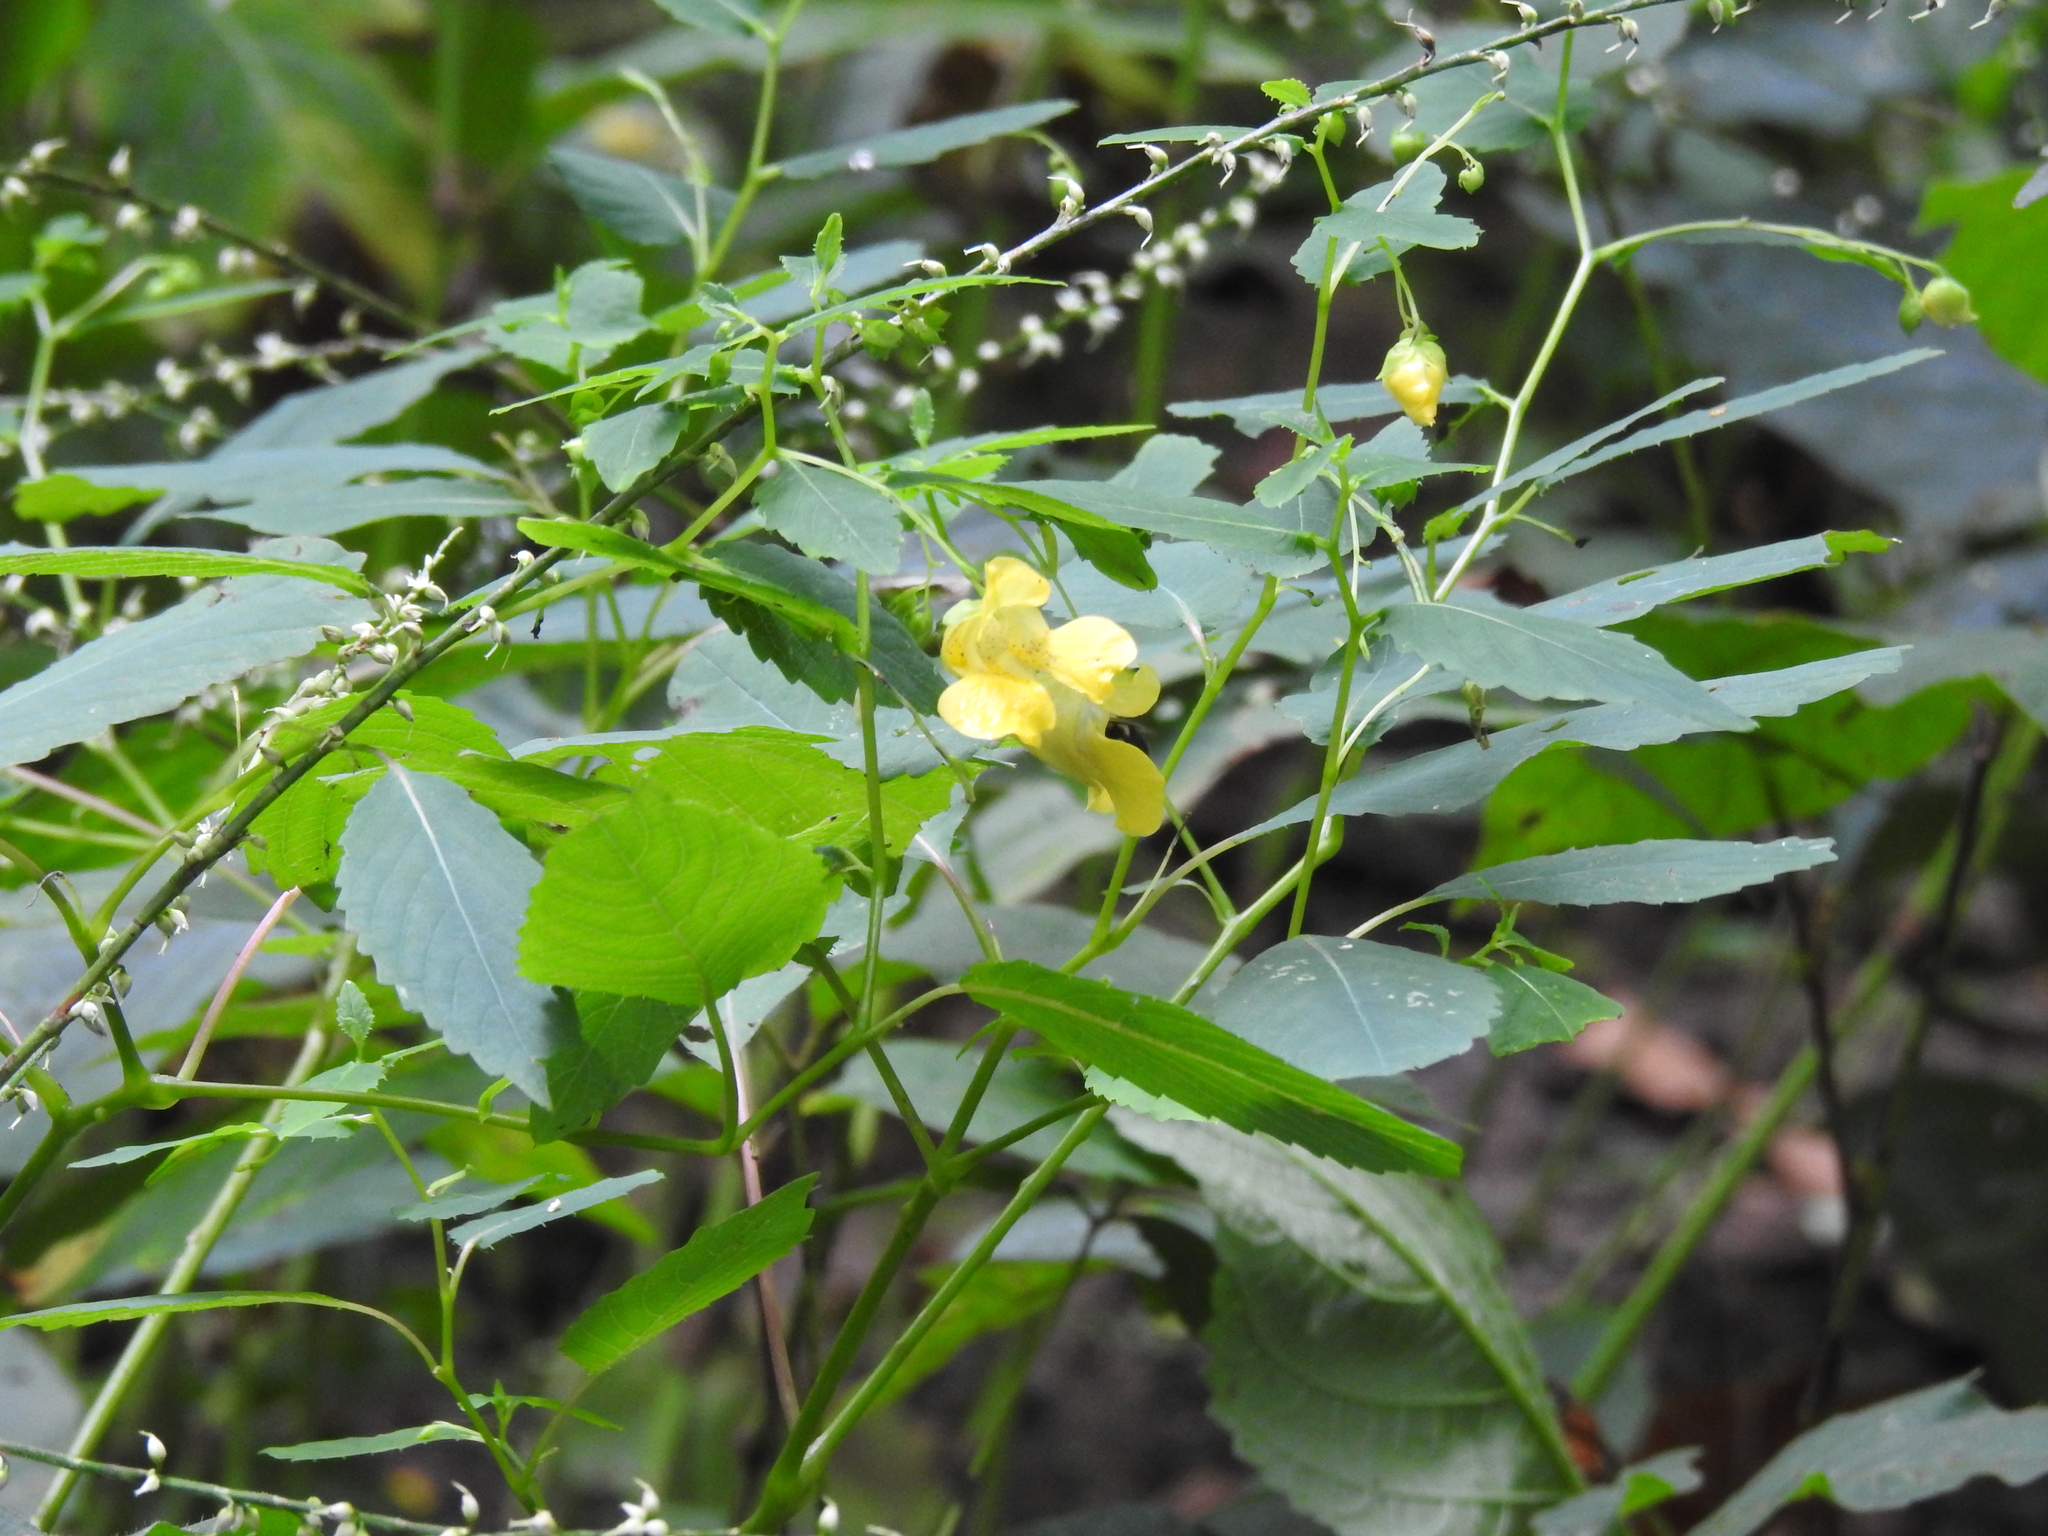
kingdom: Plantae
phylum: Tracheophyta
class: Magnoliopsida
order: Ericales
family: Balsaminaceae
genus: Impatiens
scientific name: Impatiens pallida
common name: Pale snapweed
